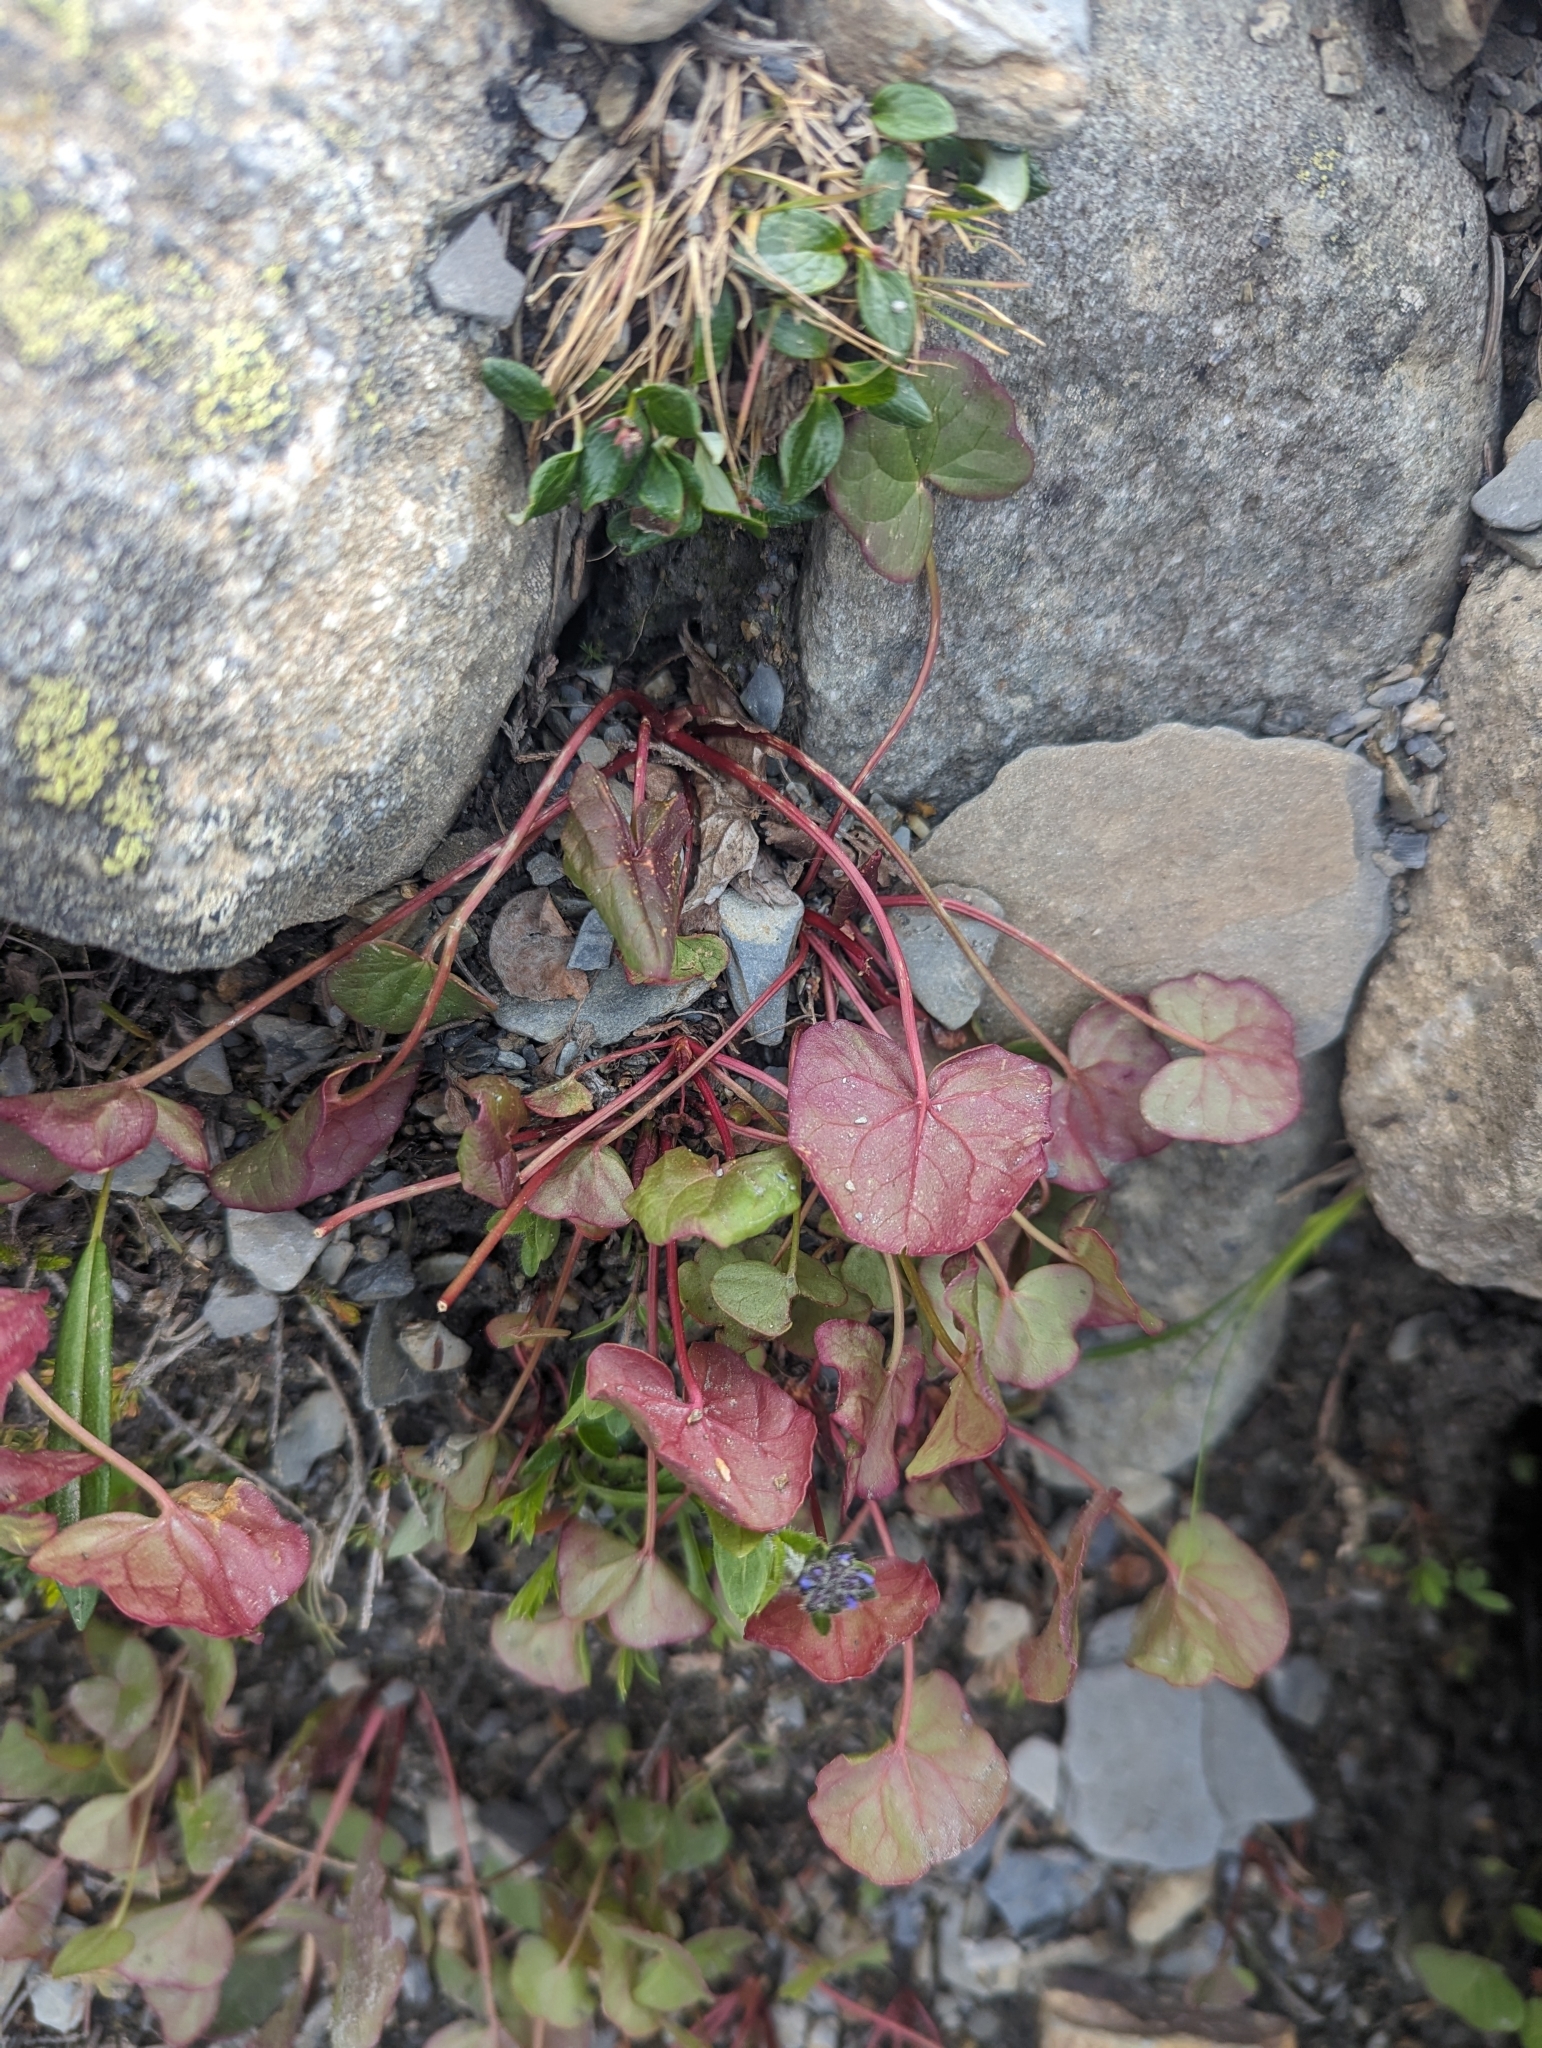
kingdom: Plantae
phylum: Tracheophyta
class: Magnoliopsida
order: Caryophyllales
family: Polygonaceae
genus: Oxyria
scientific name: Oxyria digyna
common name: Alpine mountain-sorrel
